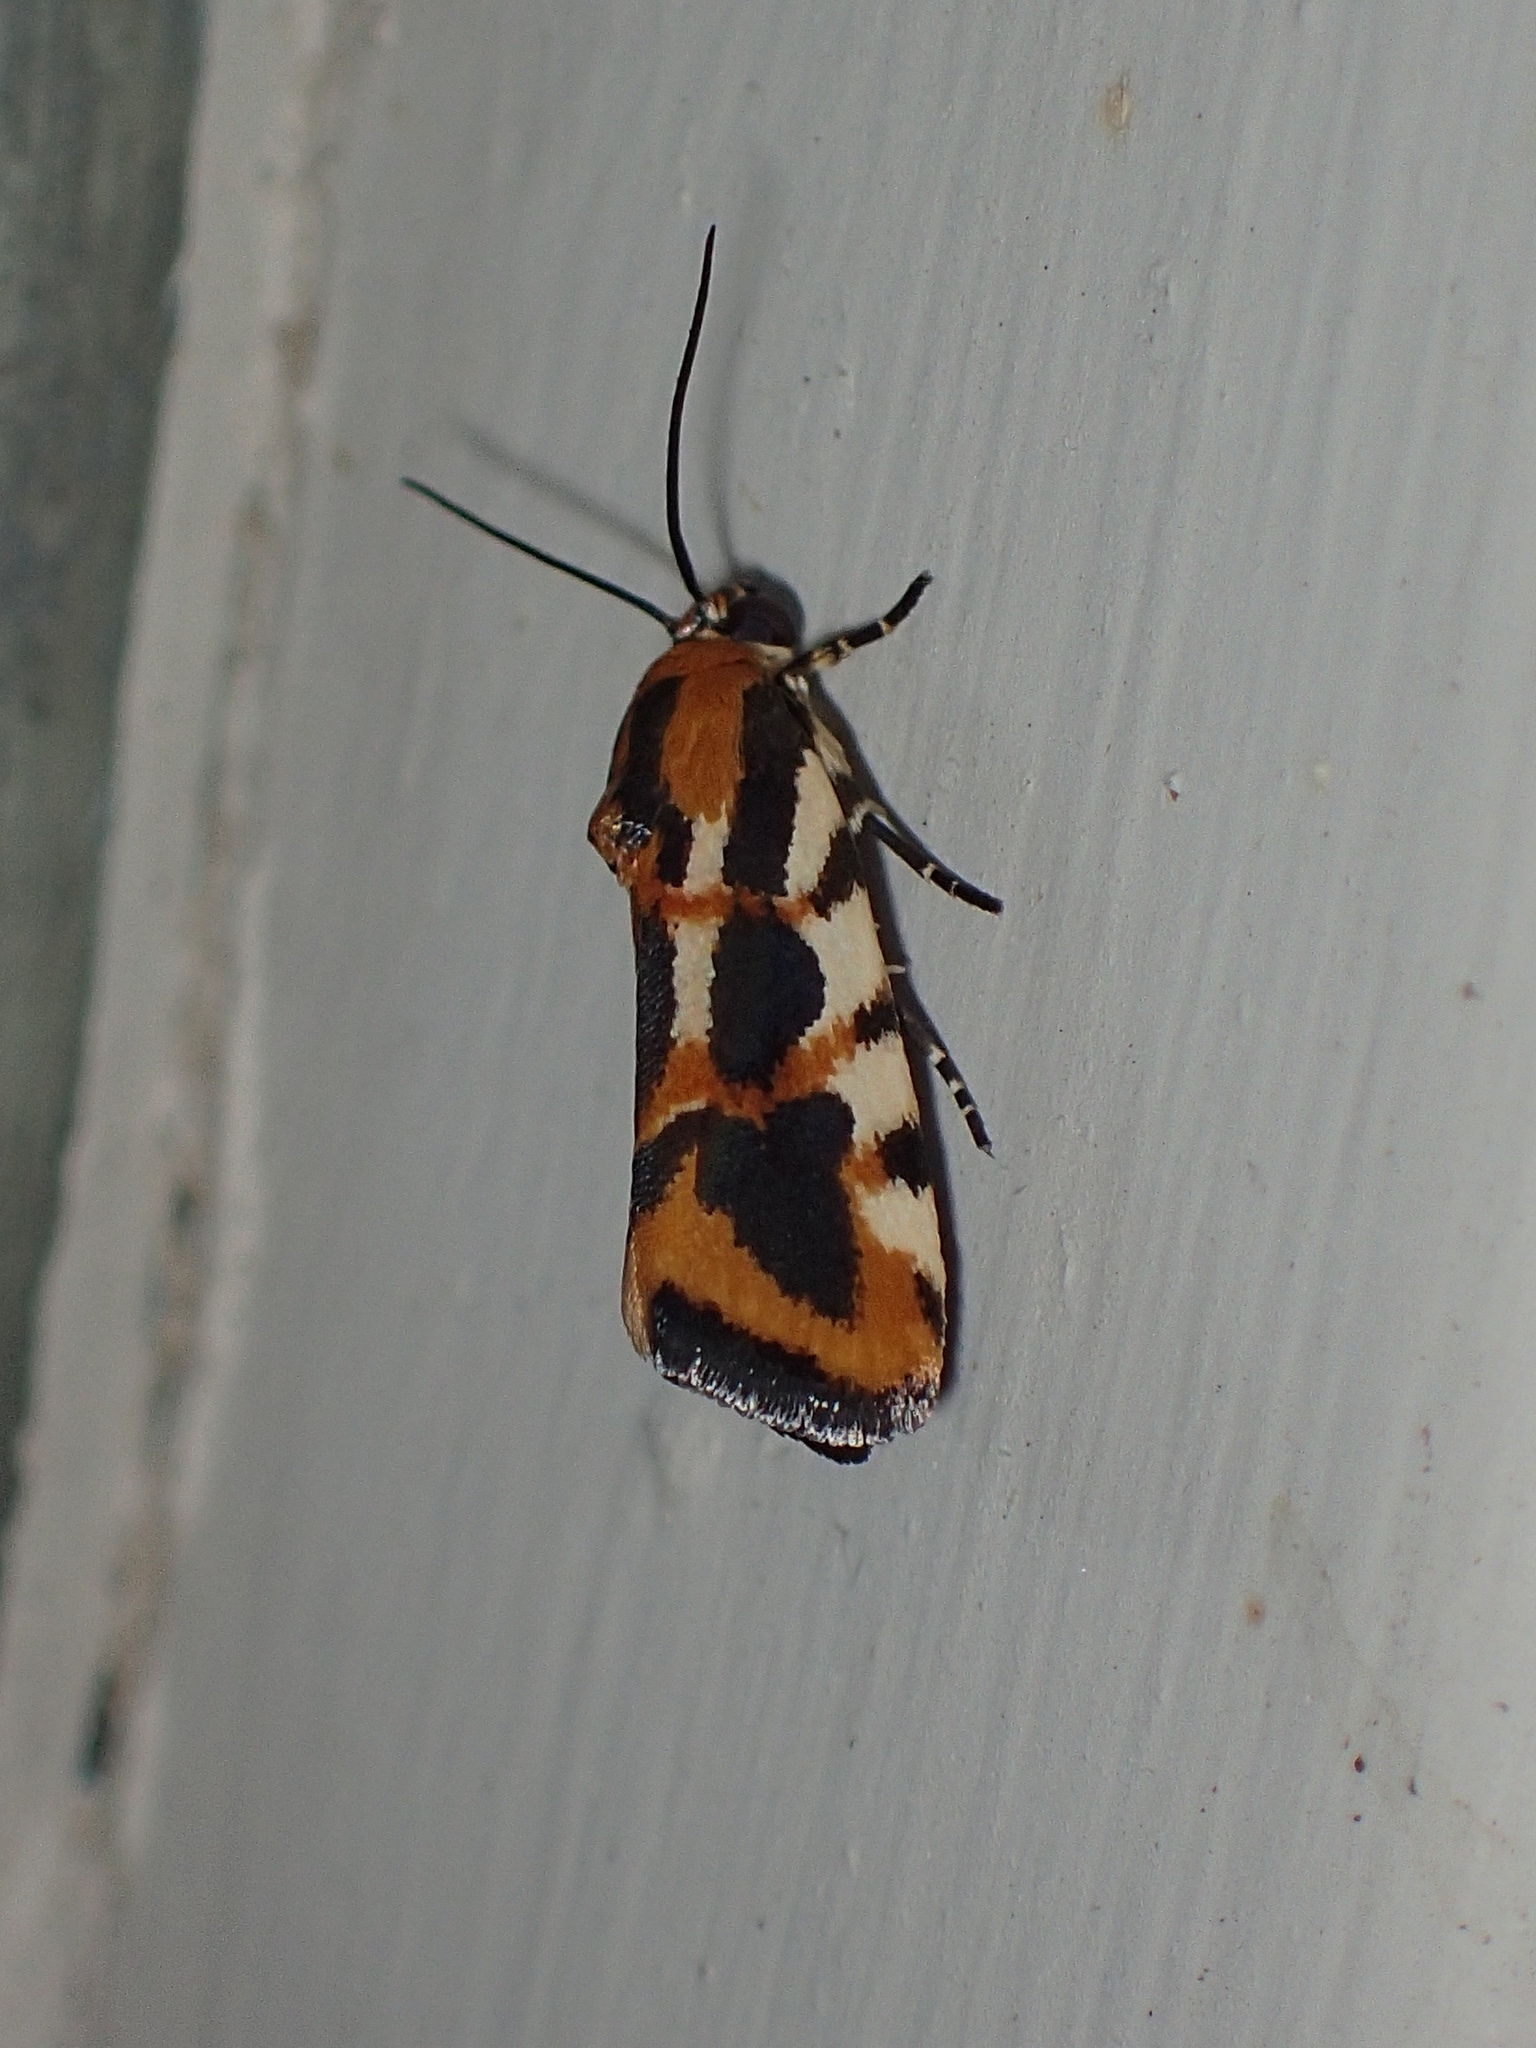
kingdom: Animalia
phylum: Arthropoda
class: Insecta
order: Lepidoptera
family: Noctuidae
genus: Acontia
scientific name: Acontia leo
